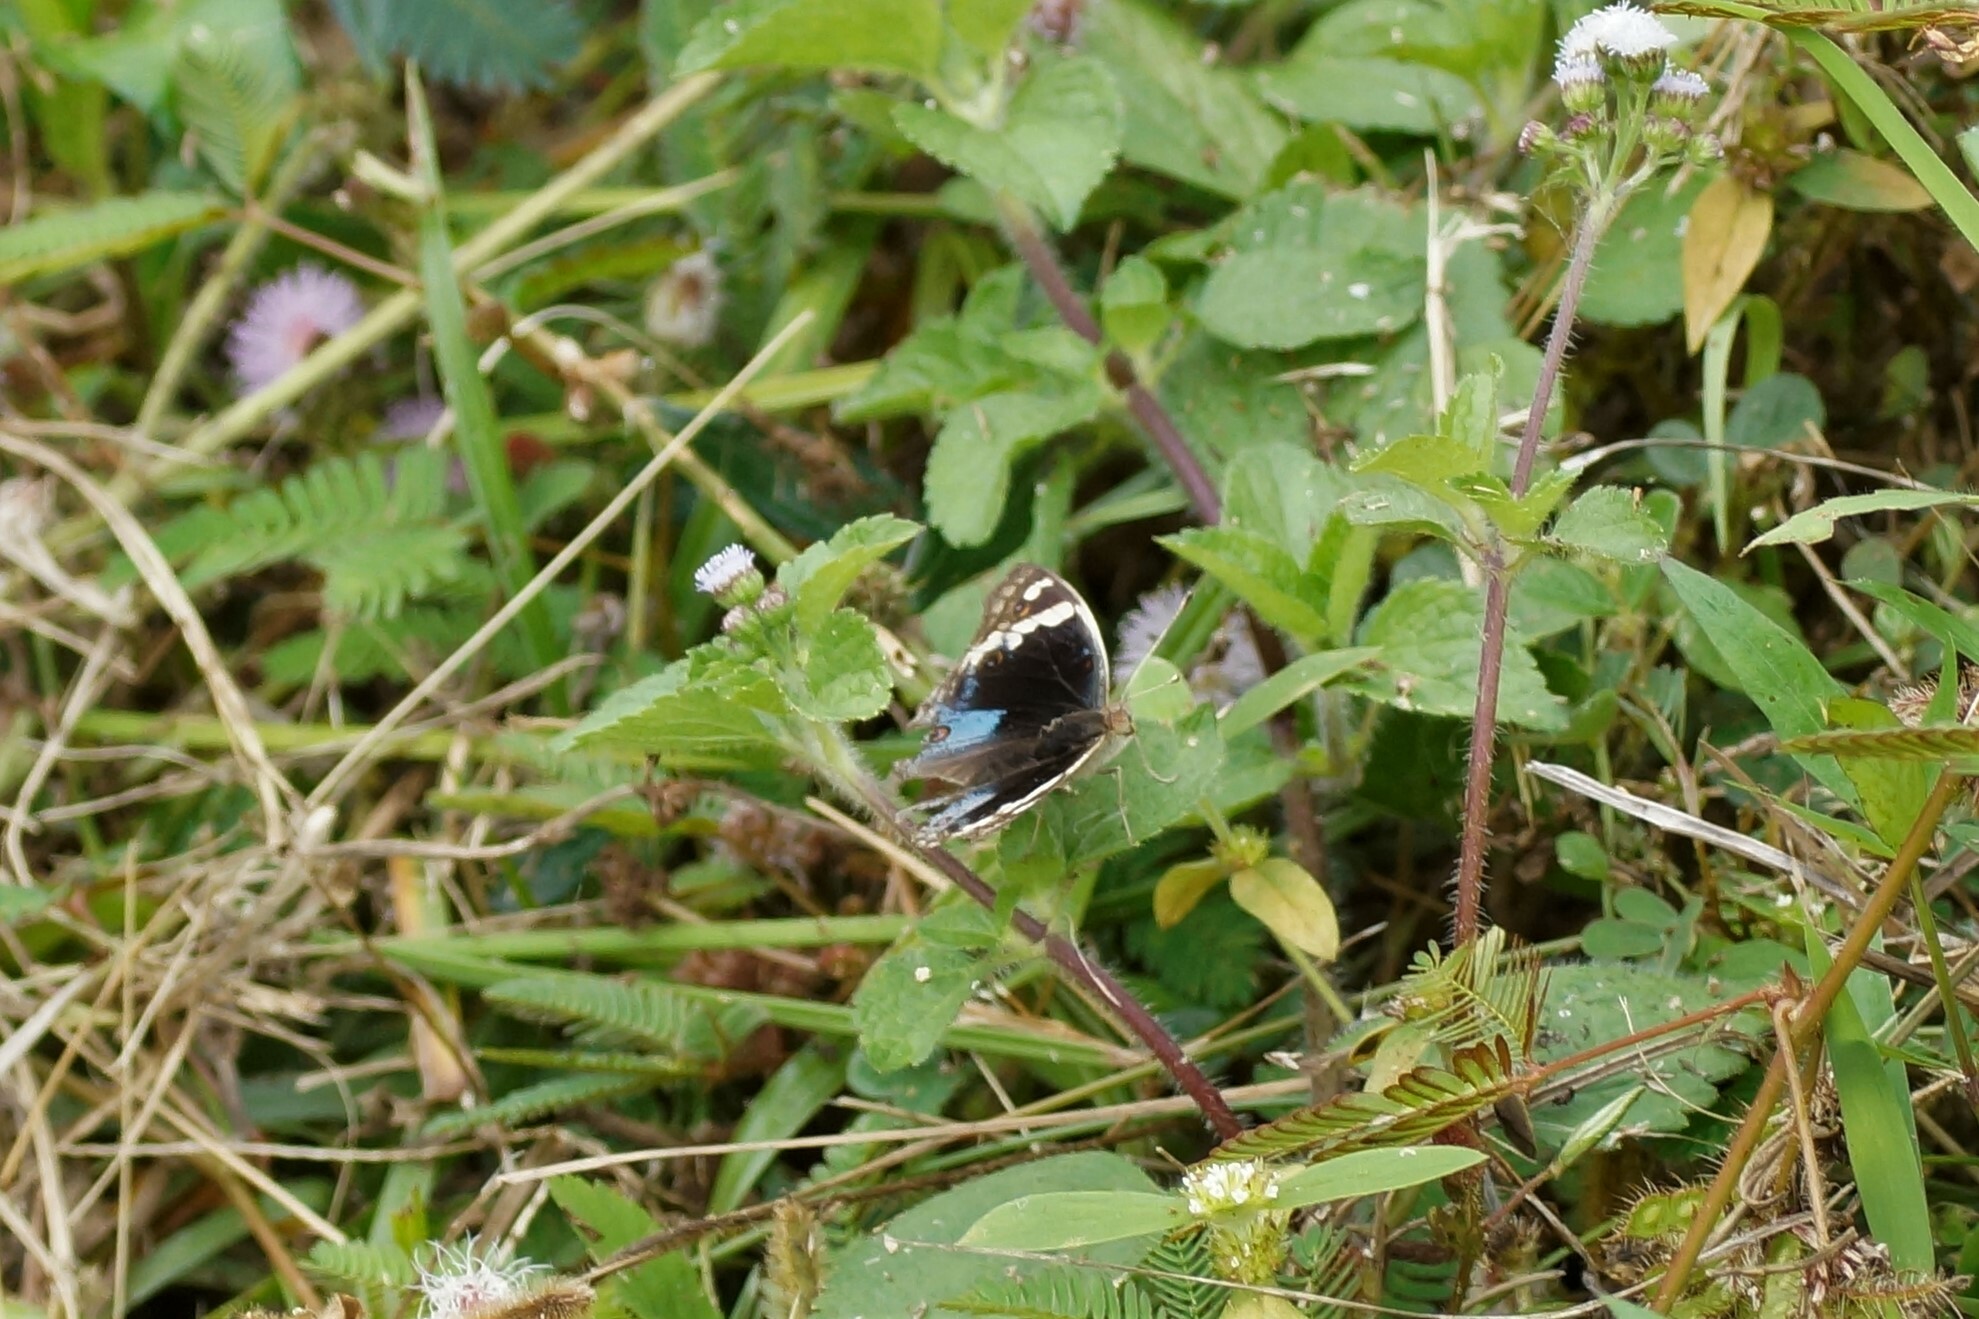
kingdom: Animalia
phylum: Arthropoda
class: Insecta
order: Lepidoptera
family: Nymphalidae
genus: Junonia
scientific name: Junonia orithya
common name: Blue pansy
